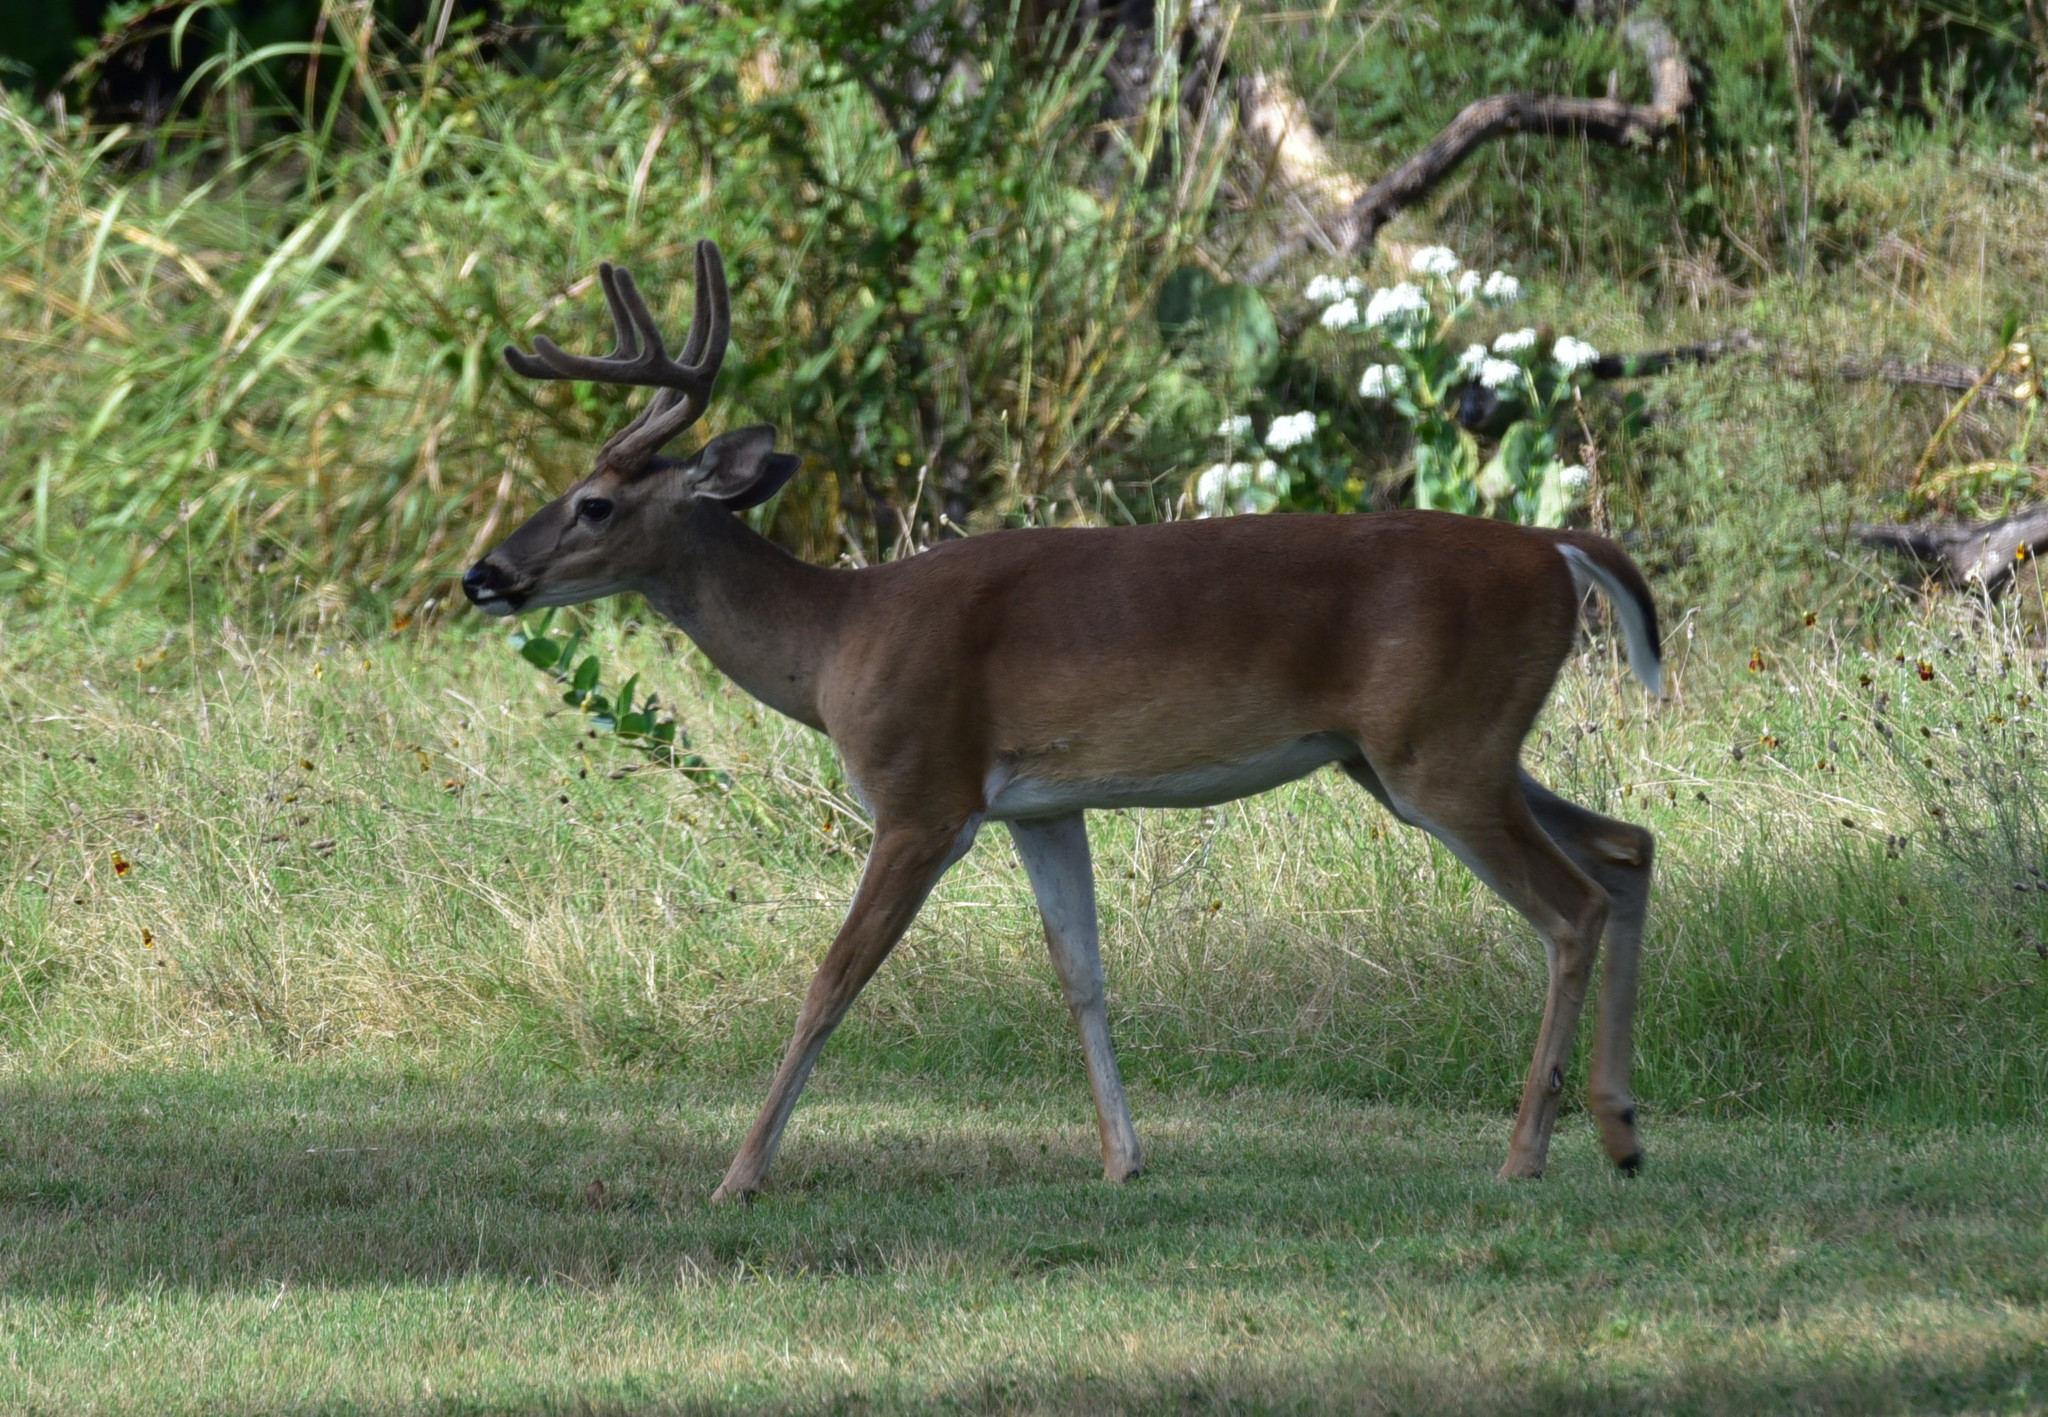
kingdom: Animalia
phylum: Chordata
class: Mammalia
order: Artiodactyla
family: Cervidae
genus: Odocoileus
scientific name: Odocoileus virginianus
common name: White-tailed deer
